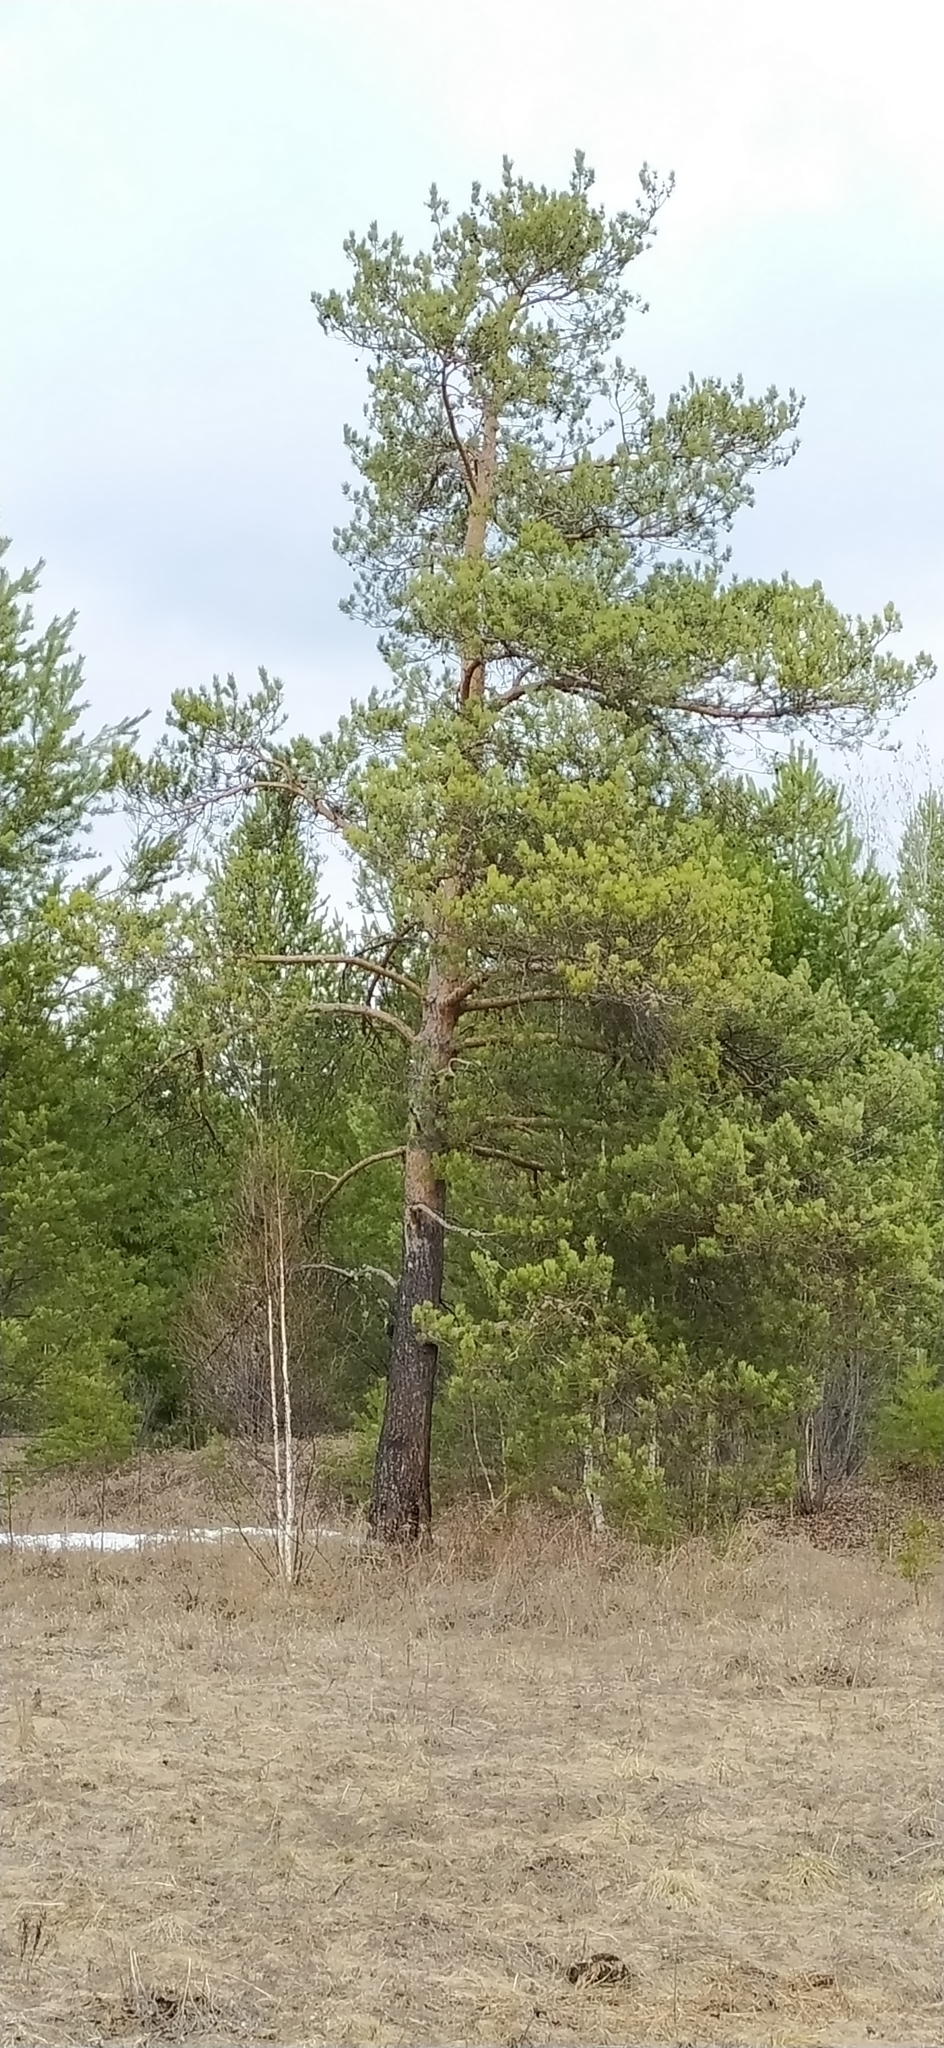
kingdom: Plantae
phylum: Tracheophyta
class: Pinopsida
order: Pinales
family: Pinaceae
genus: Pinus
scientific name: Pinus sylvestris
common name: Scots pine
